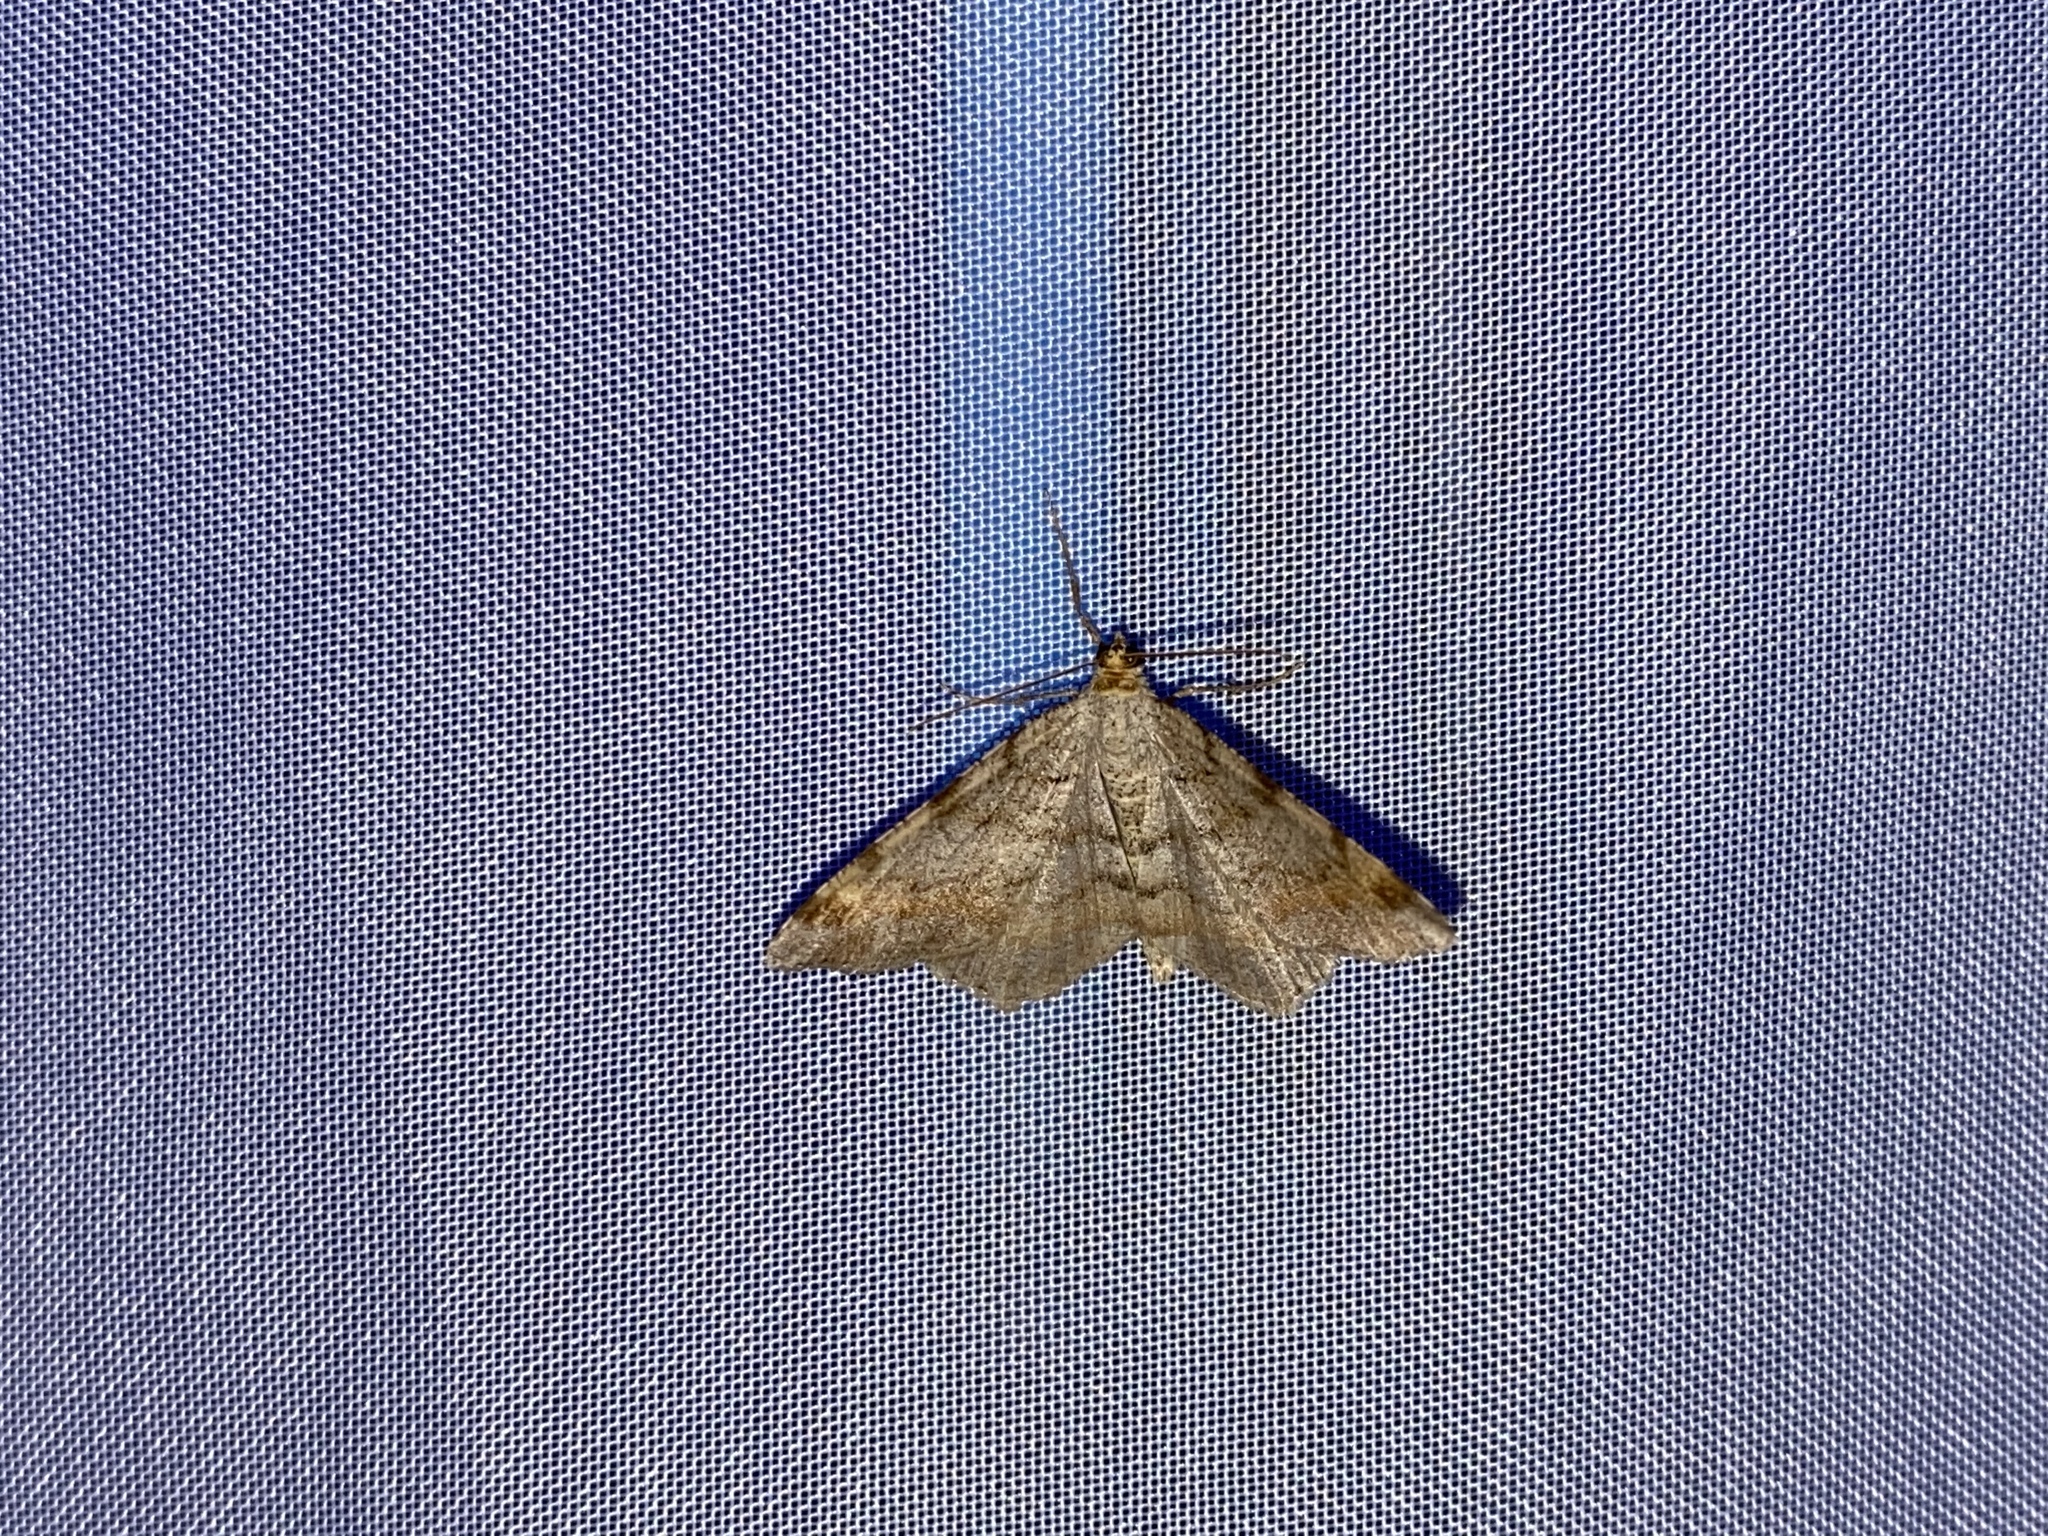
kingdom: Animalia
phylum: Arthropoda
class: Insecta
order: Lepidoptera
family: Geometridae
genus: Macaria
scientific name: Macaria liturata
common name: Tawny-barred angle
